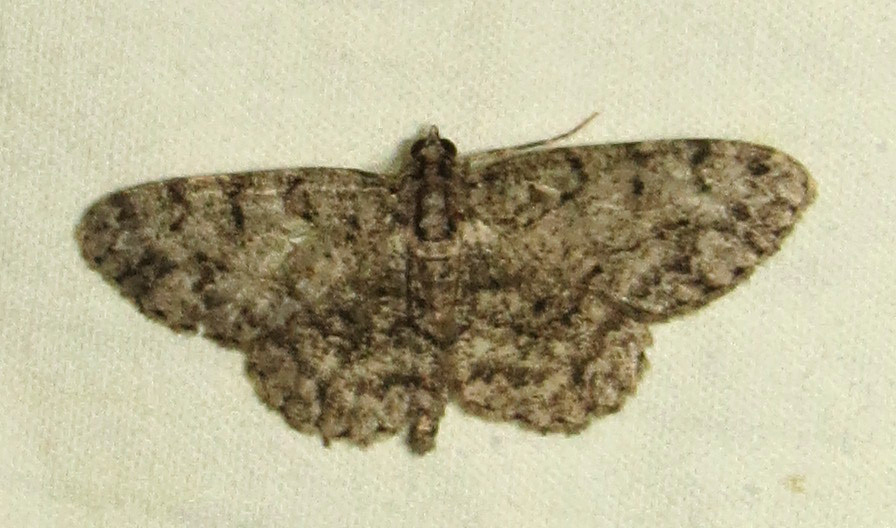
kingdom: Animalia
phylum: Arthropoda
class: Insecta
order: Lepidoptera
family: Geometridae
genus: Protoboarmia
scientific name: Protoboarmia porcelaria
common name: Porcelain gray
